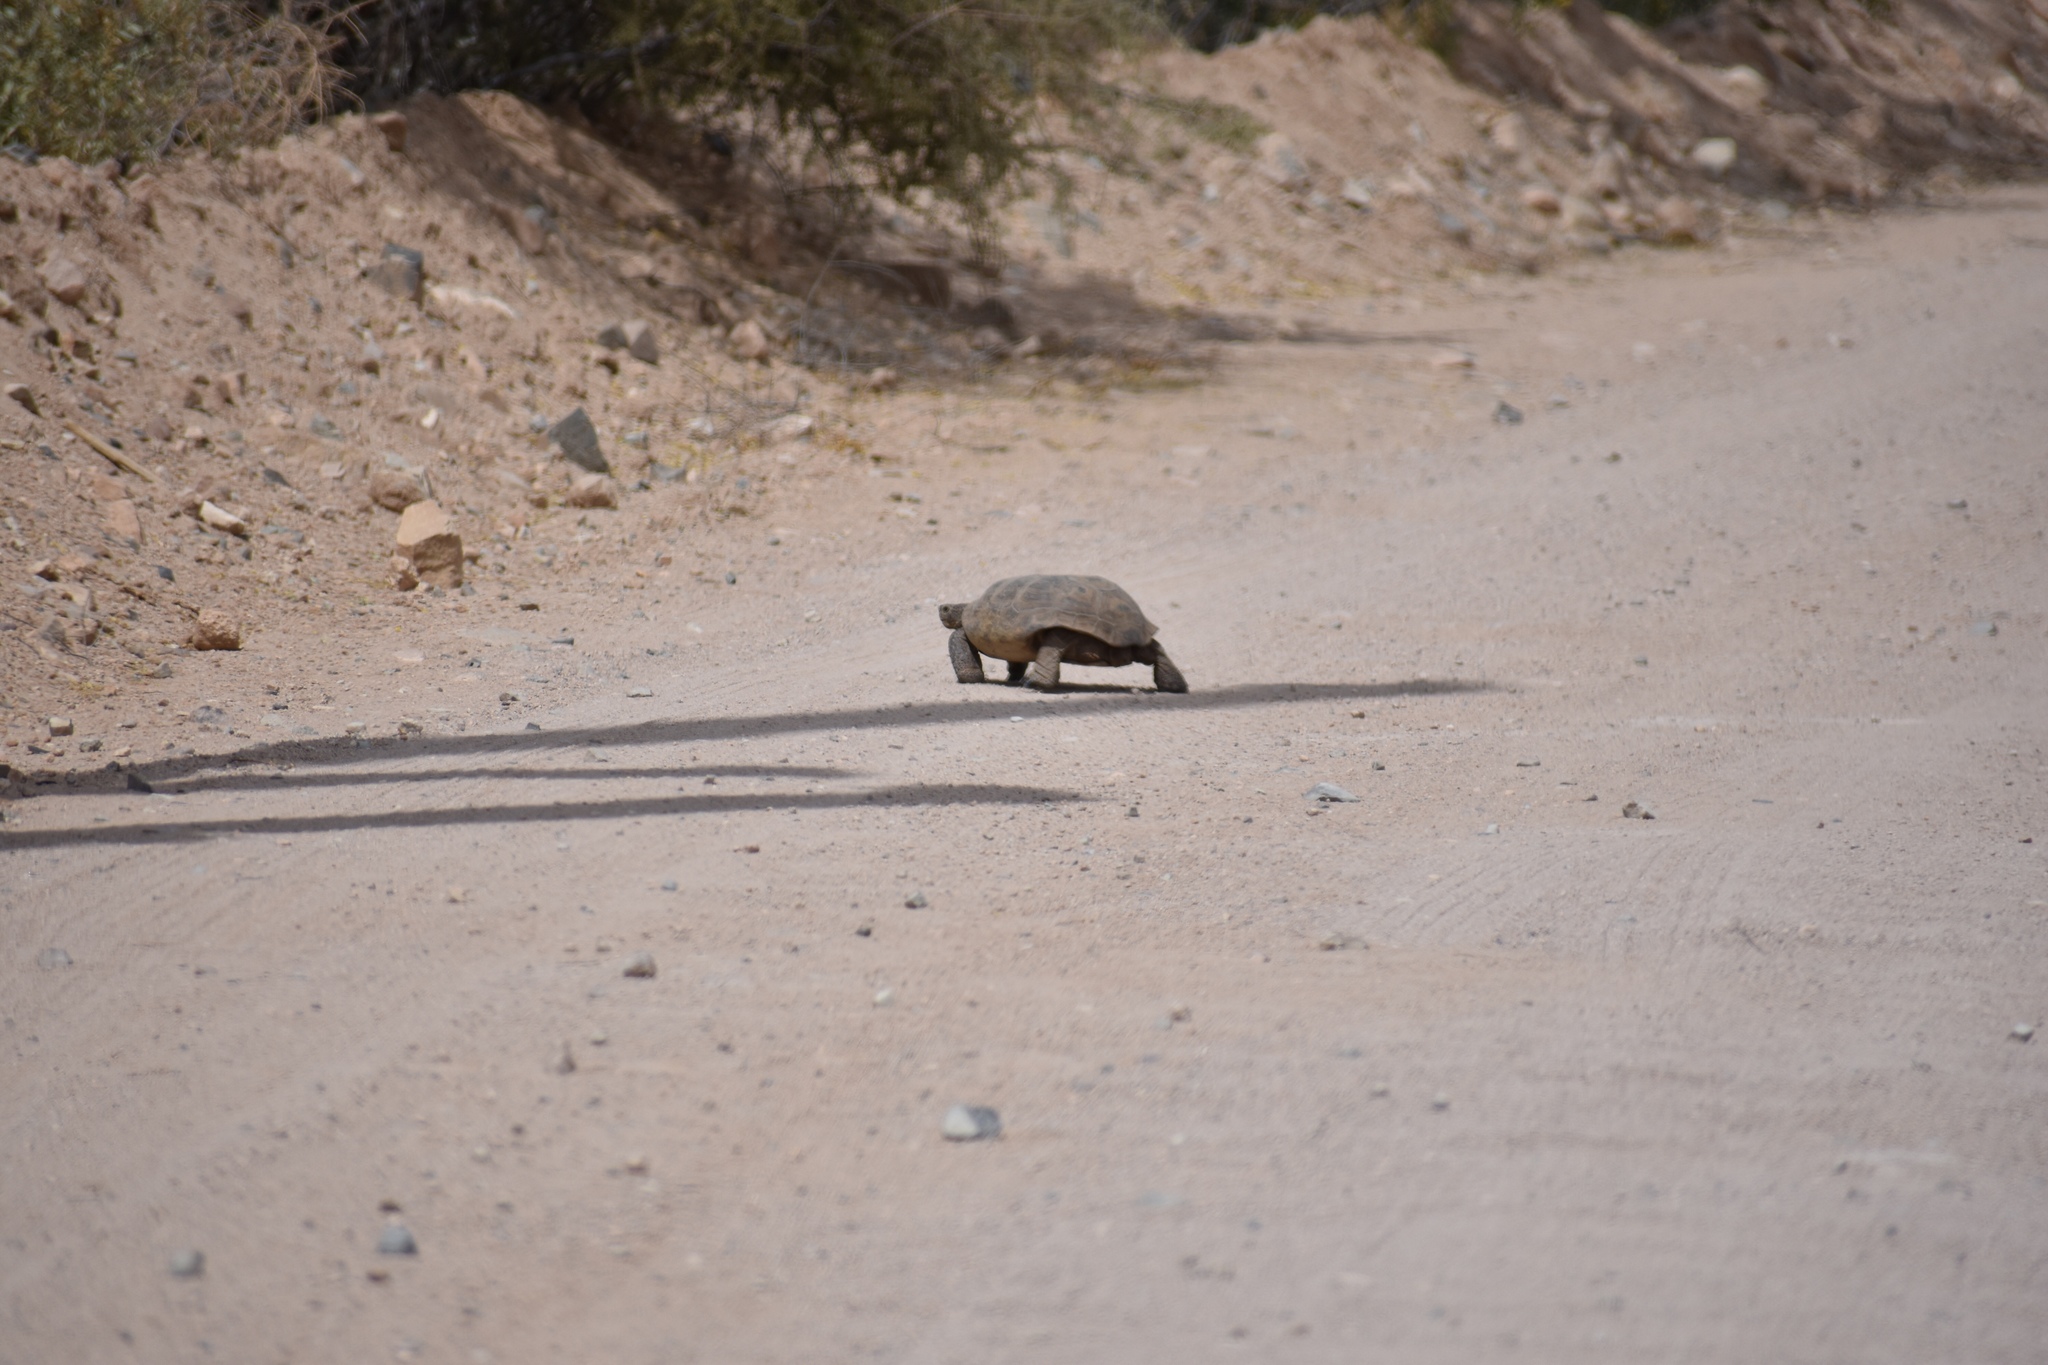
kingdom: Animalia
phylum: Chordata
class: Testudines
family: Testudinidae
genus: Gopherus
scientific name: Gopherus morafkai
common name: Sonoran desert tortoise
